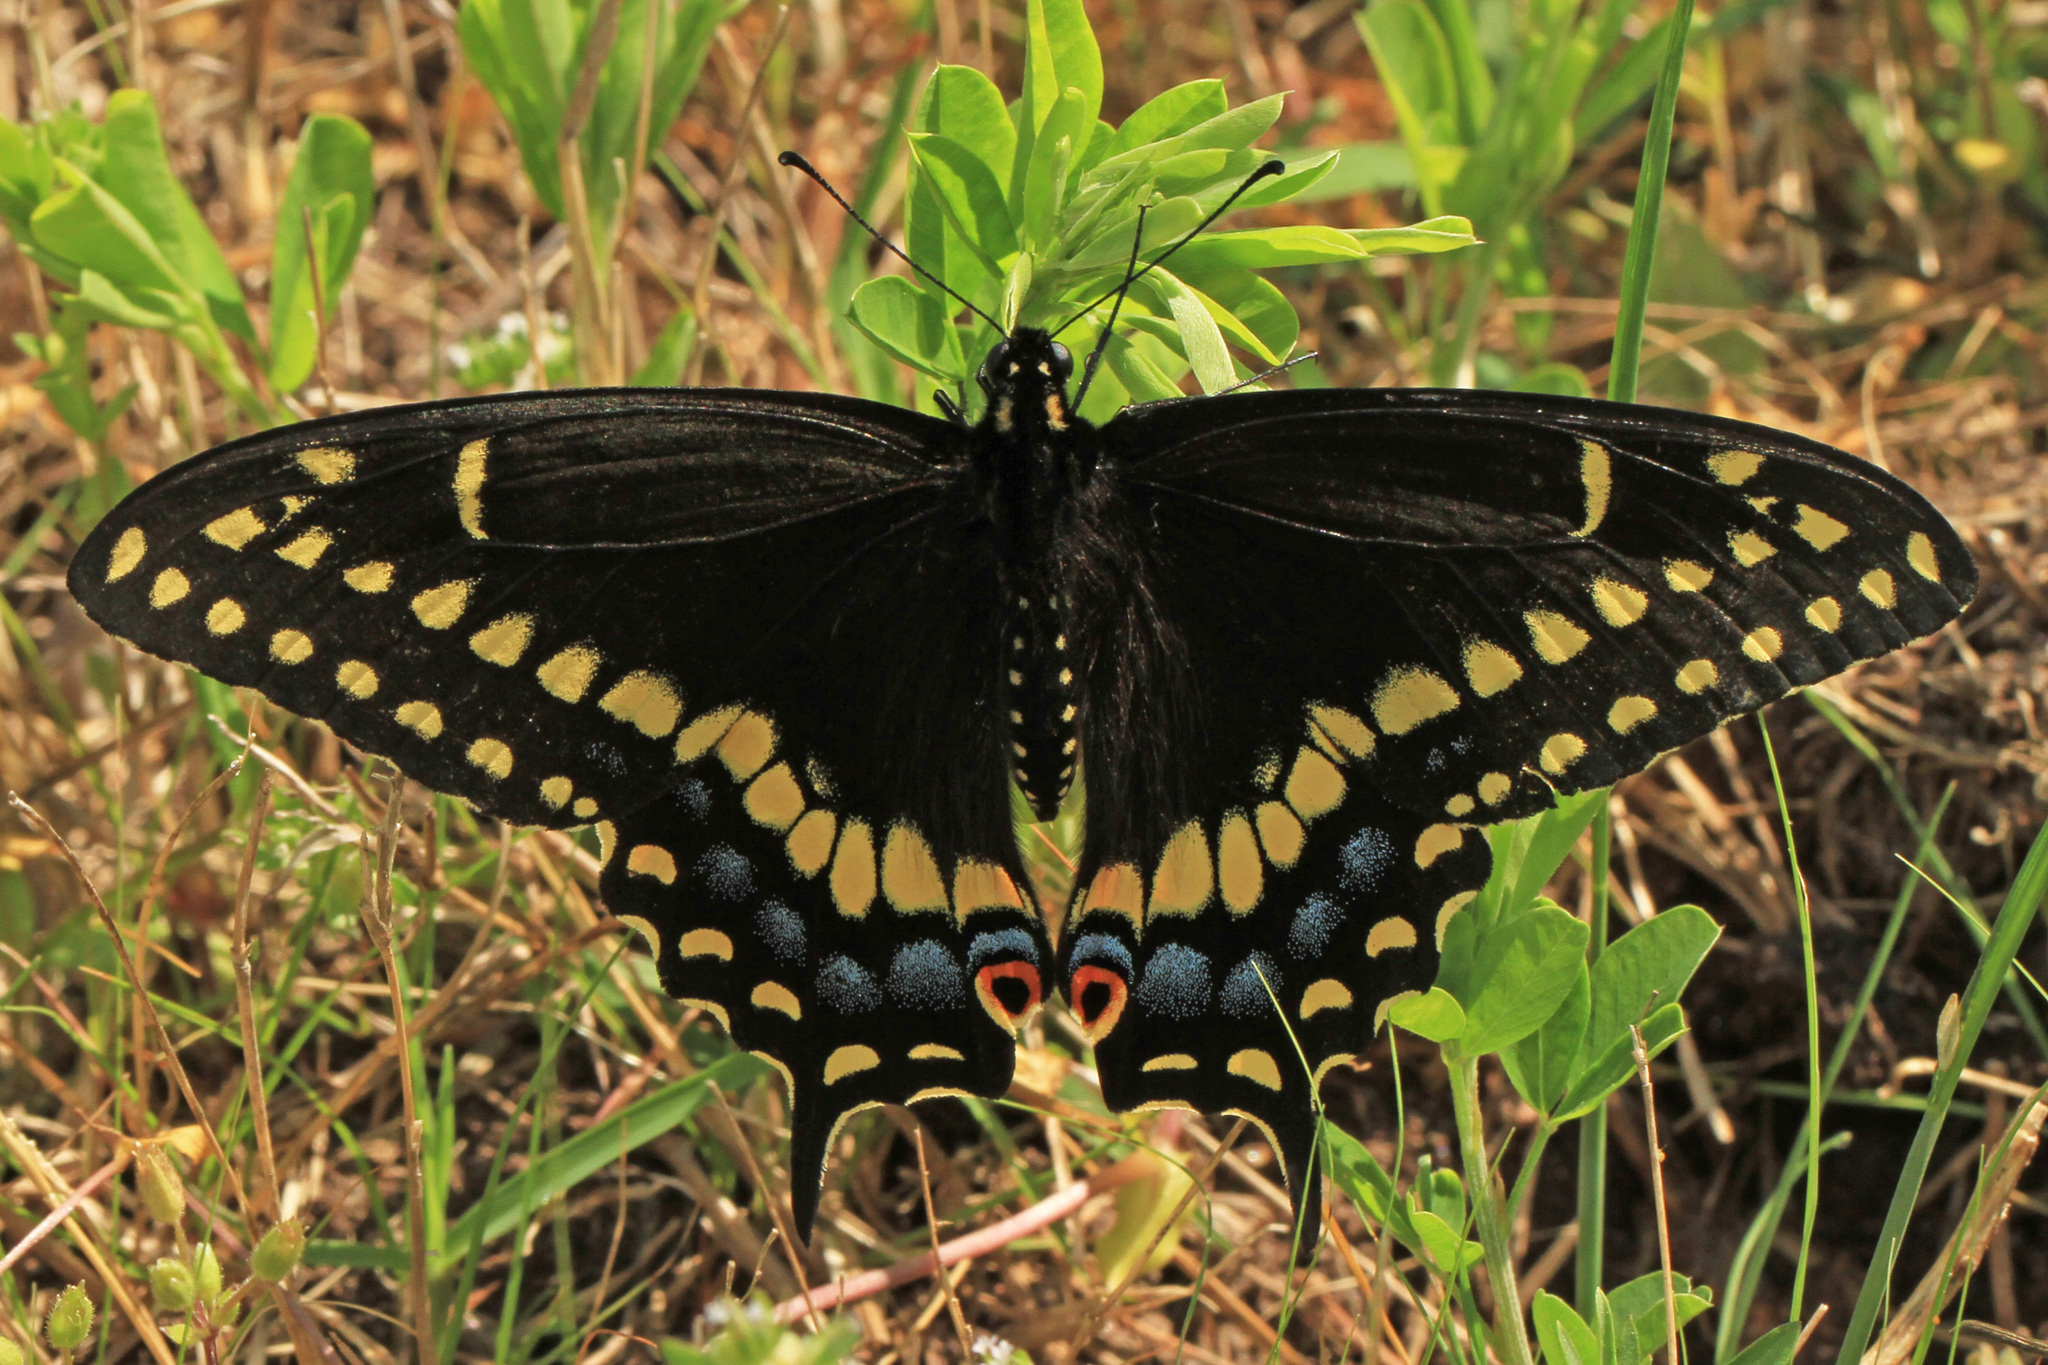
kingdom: Animalia
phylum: Arthropoda
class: Insecta
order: Lepidoptera
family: Papilionidae
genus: Papilio
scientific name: Papilio polyxenes
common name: Black swallowtail
